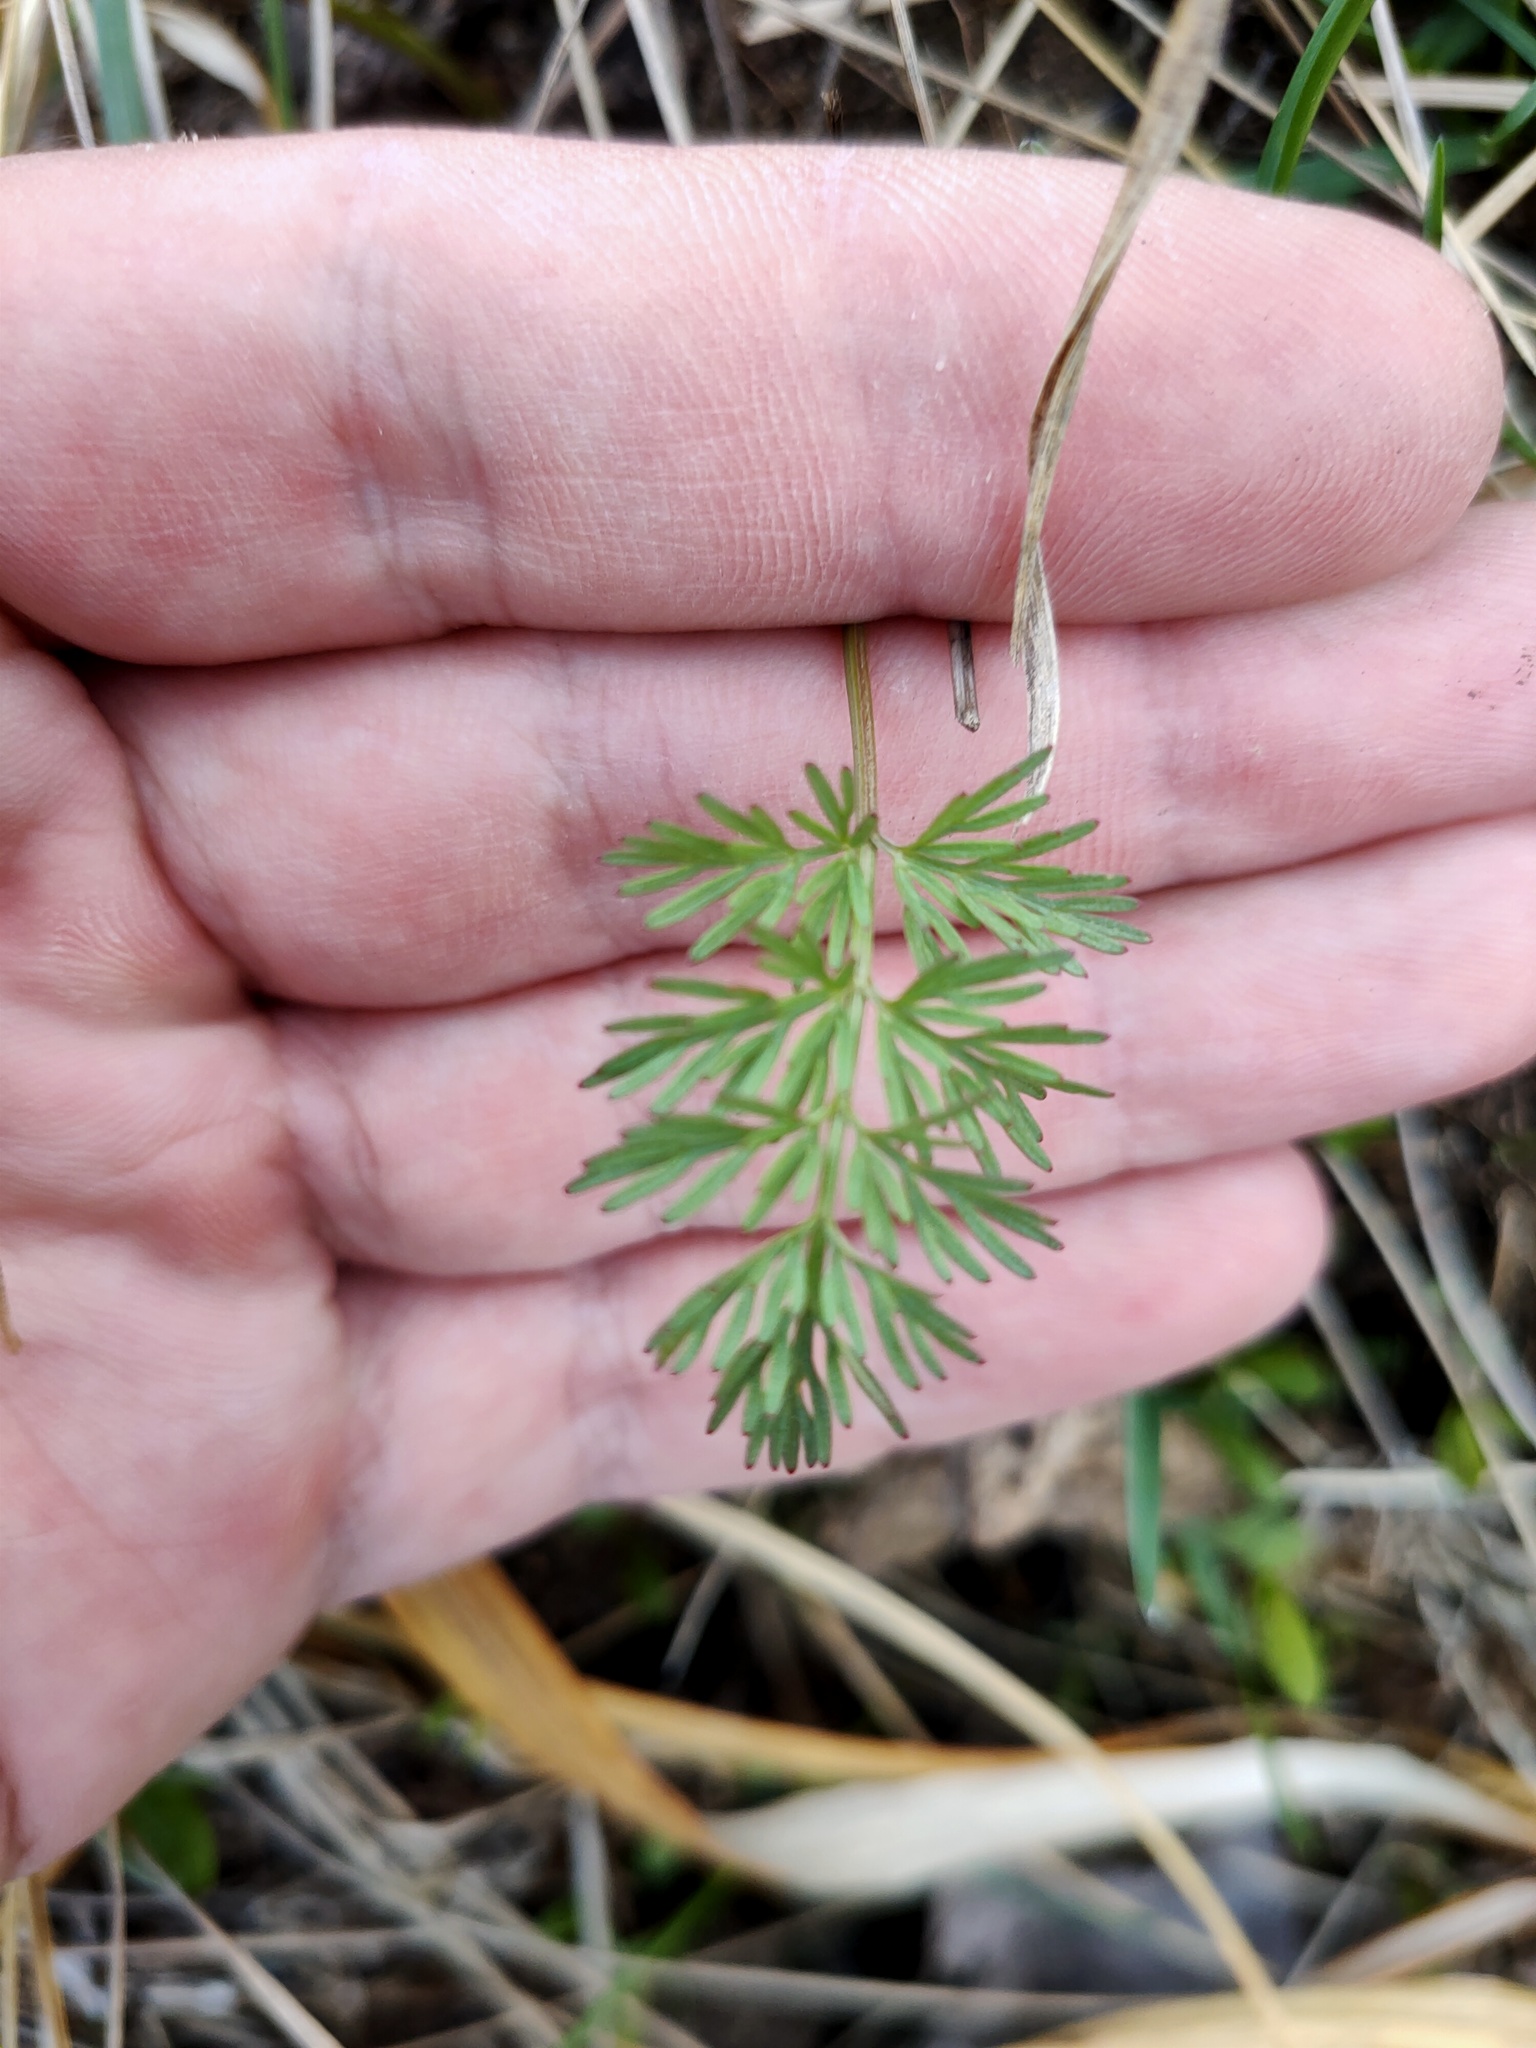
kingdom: Plantae
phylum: Tracheophyta
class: Magnoliopsida
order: Apiales
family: Apiaceae
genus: Kadenia
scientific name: Kadenia dubia
